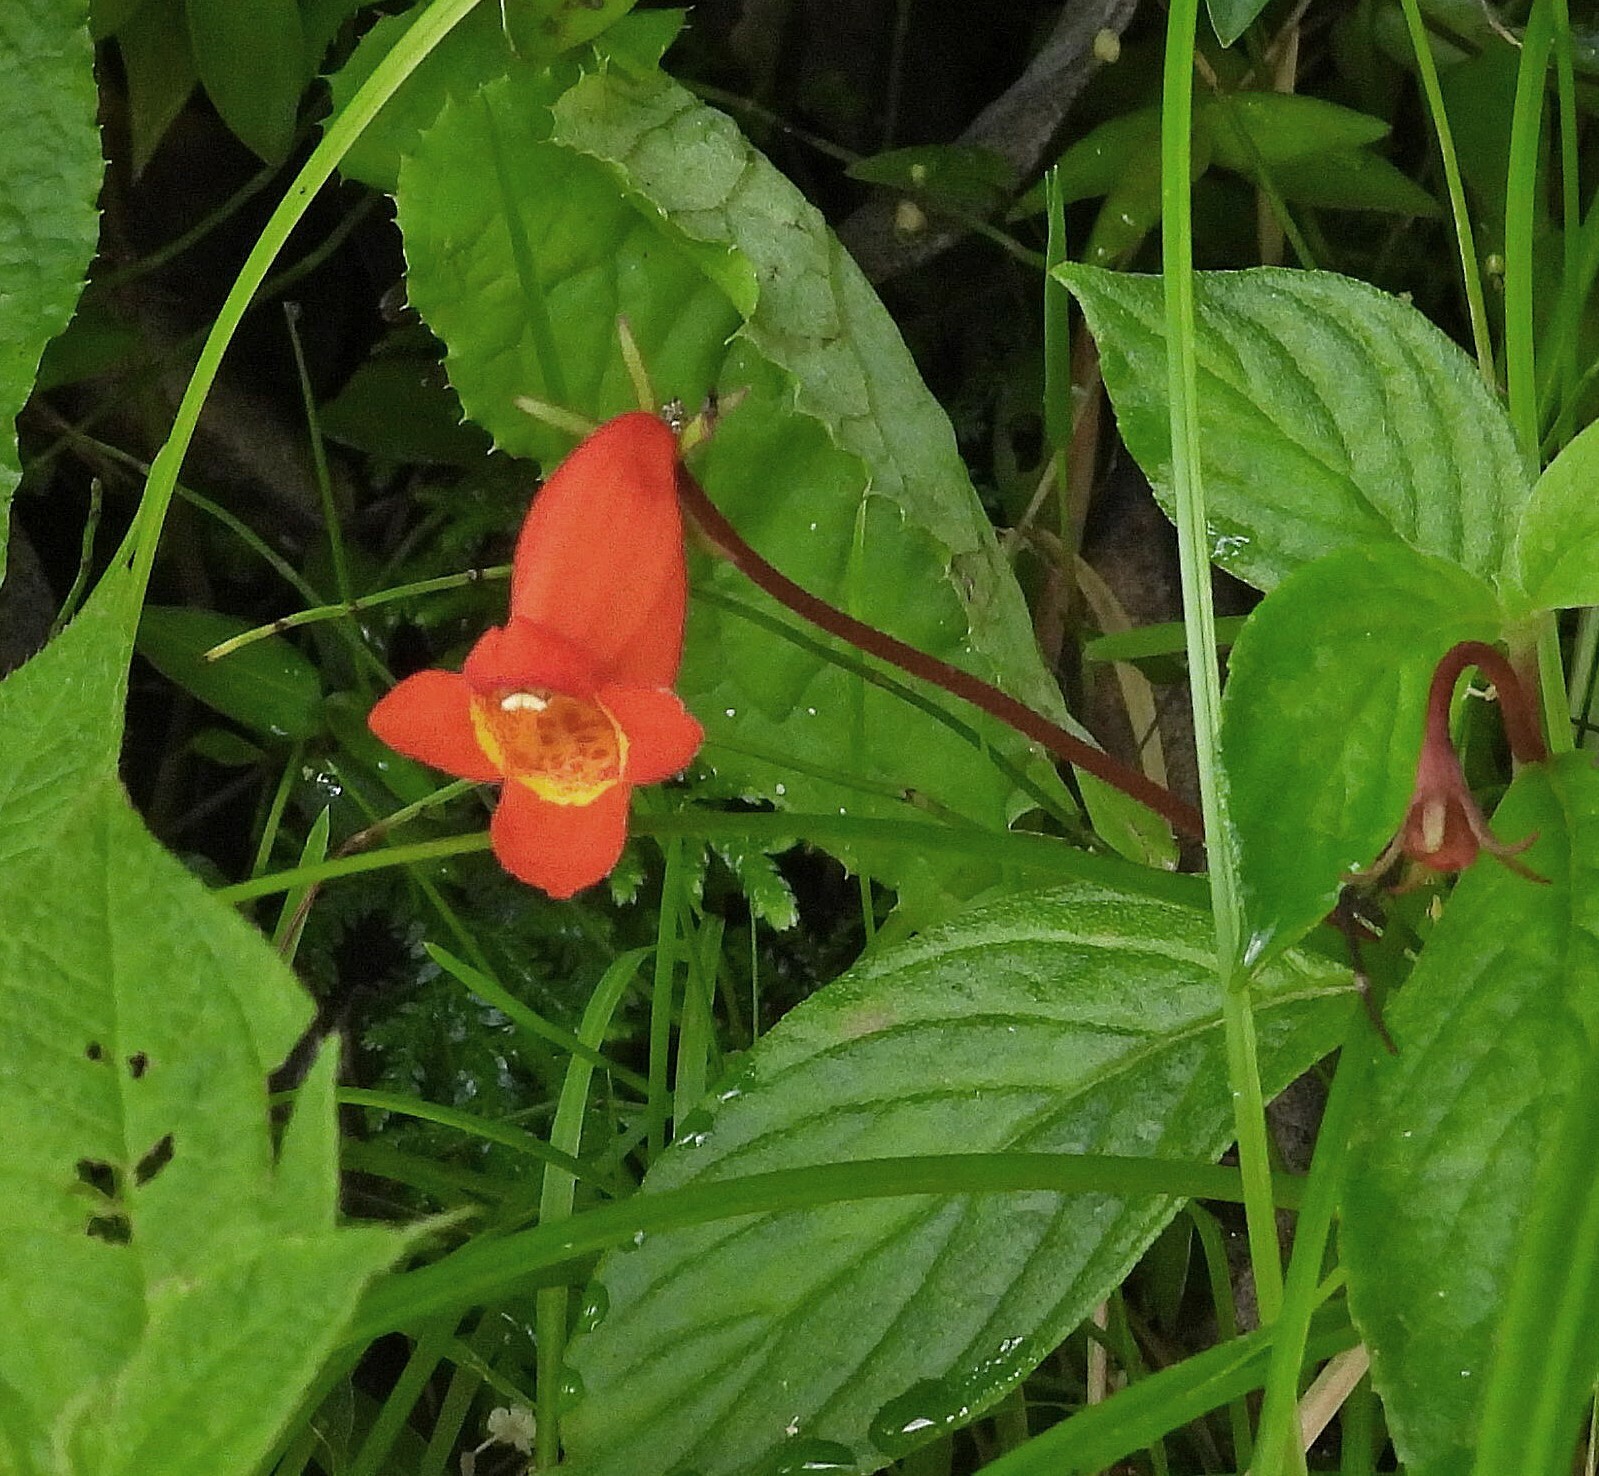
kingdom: Plantae
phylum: Tracheophyta
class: Magnoliopsida
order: Lamiales
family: Gesneriaceae
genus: Seemannia
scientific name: Seemannia nematanthodes
